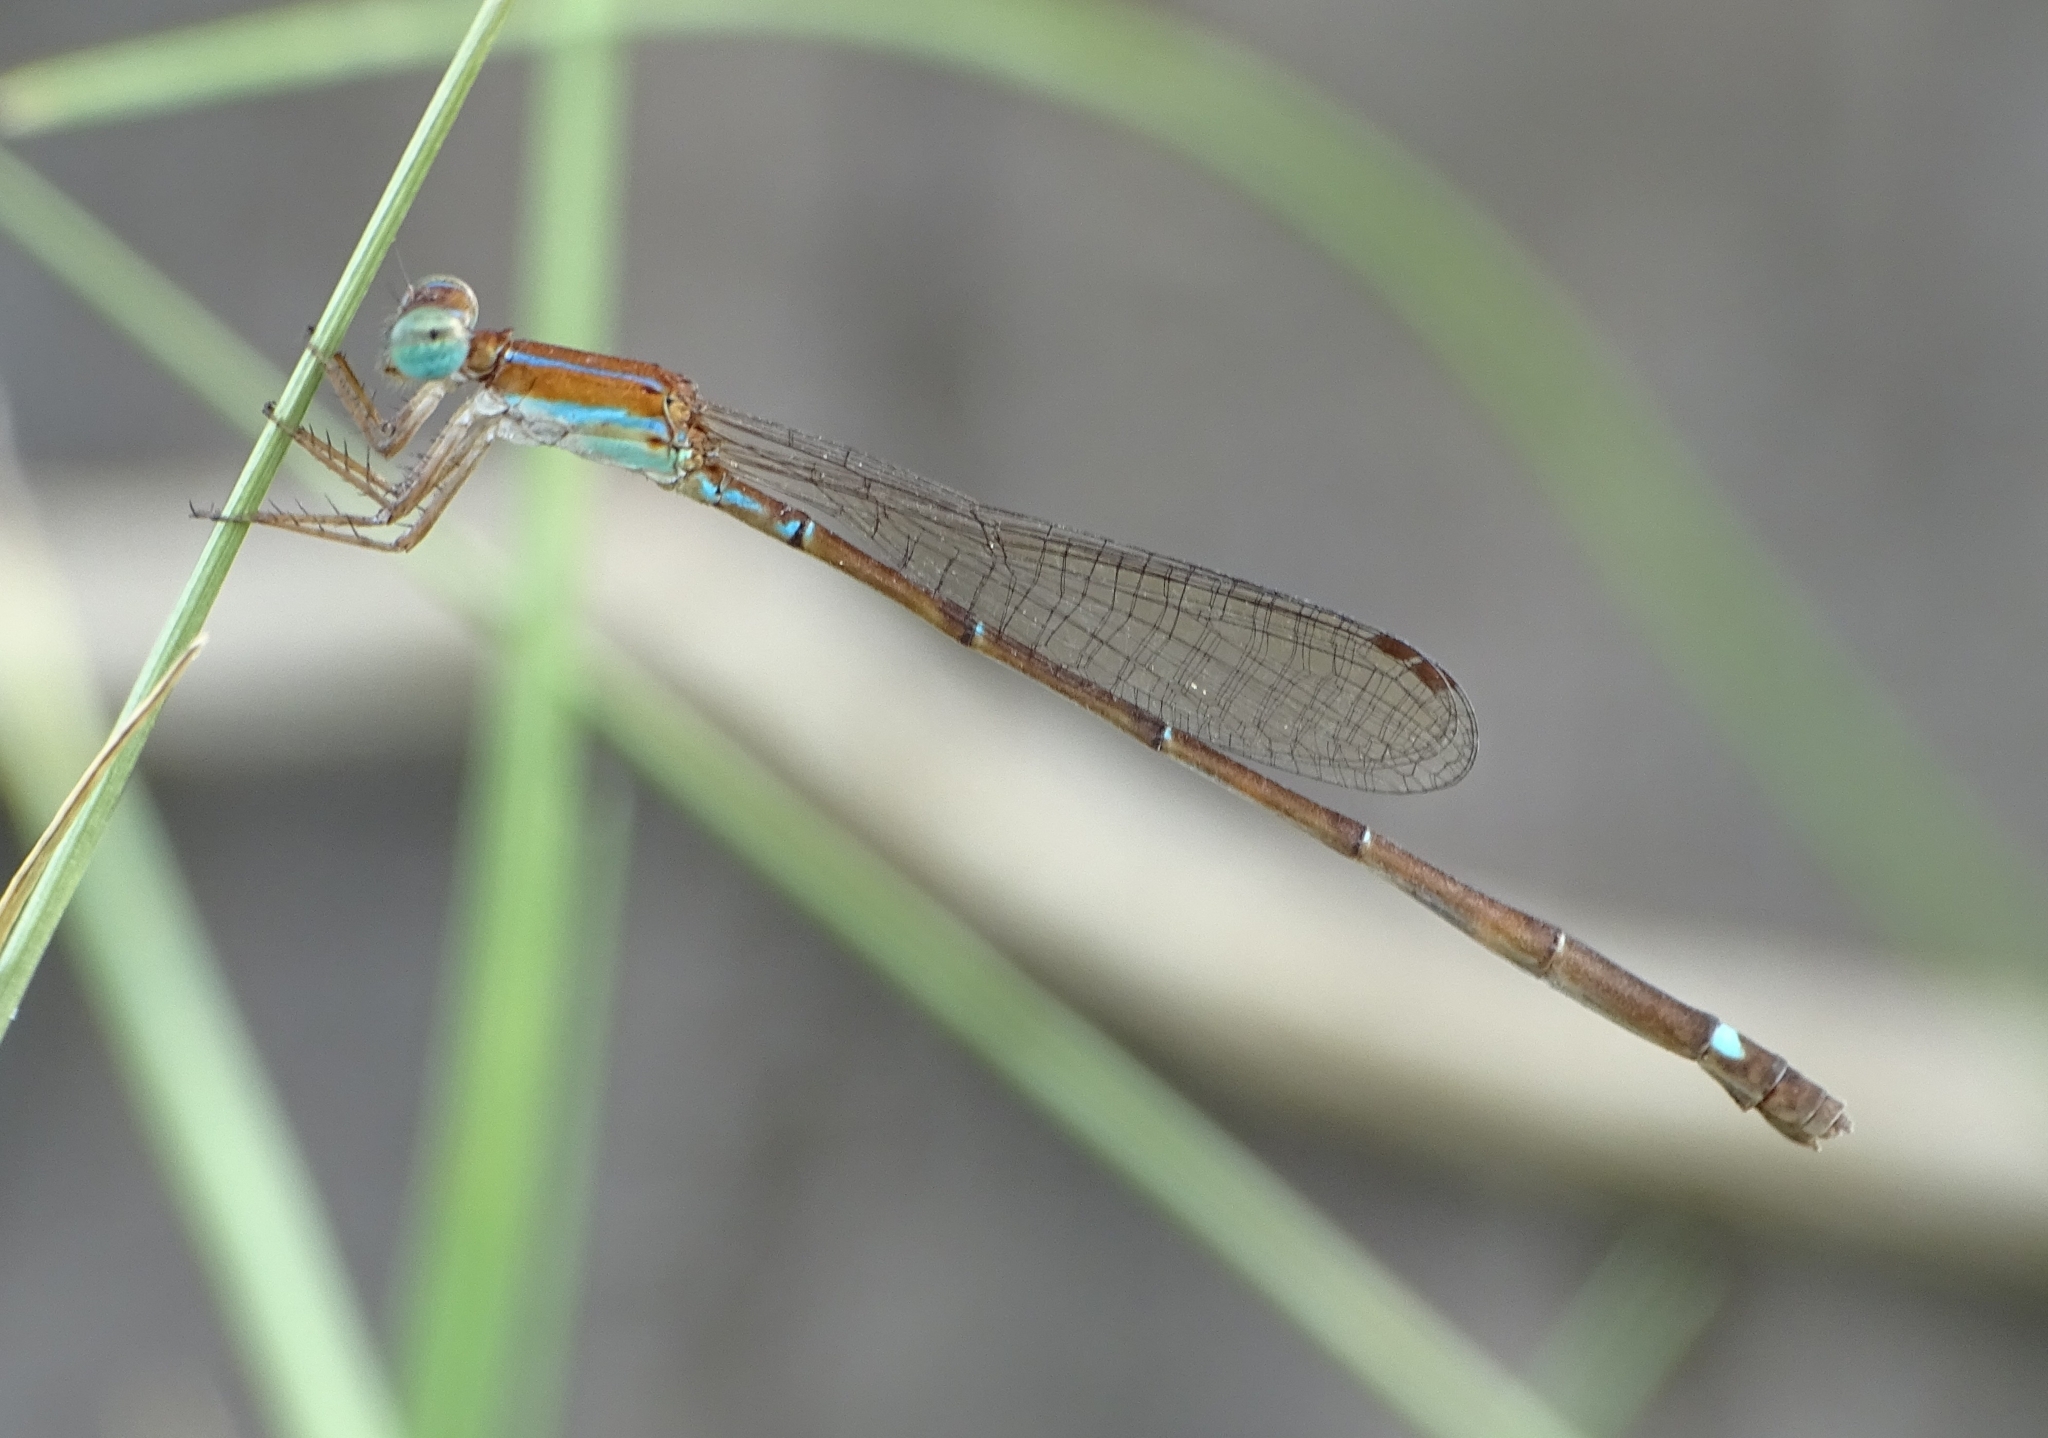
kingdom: Animalia
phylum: Arthropoda
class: Insecta
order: Odonata
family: Coenagrionidae
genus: Mortonagrion
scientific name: Mortonagrion varralli
